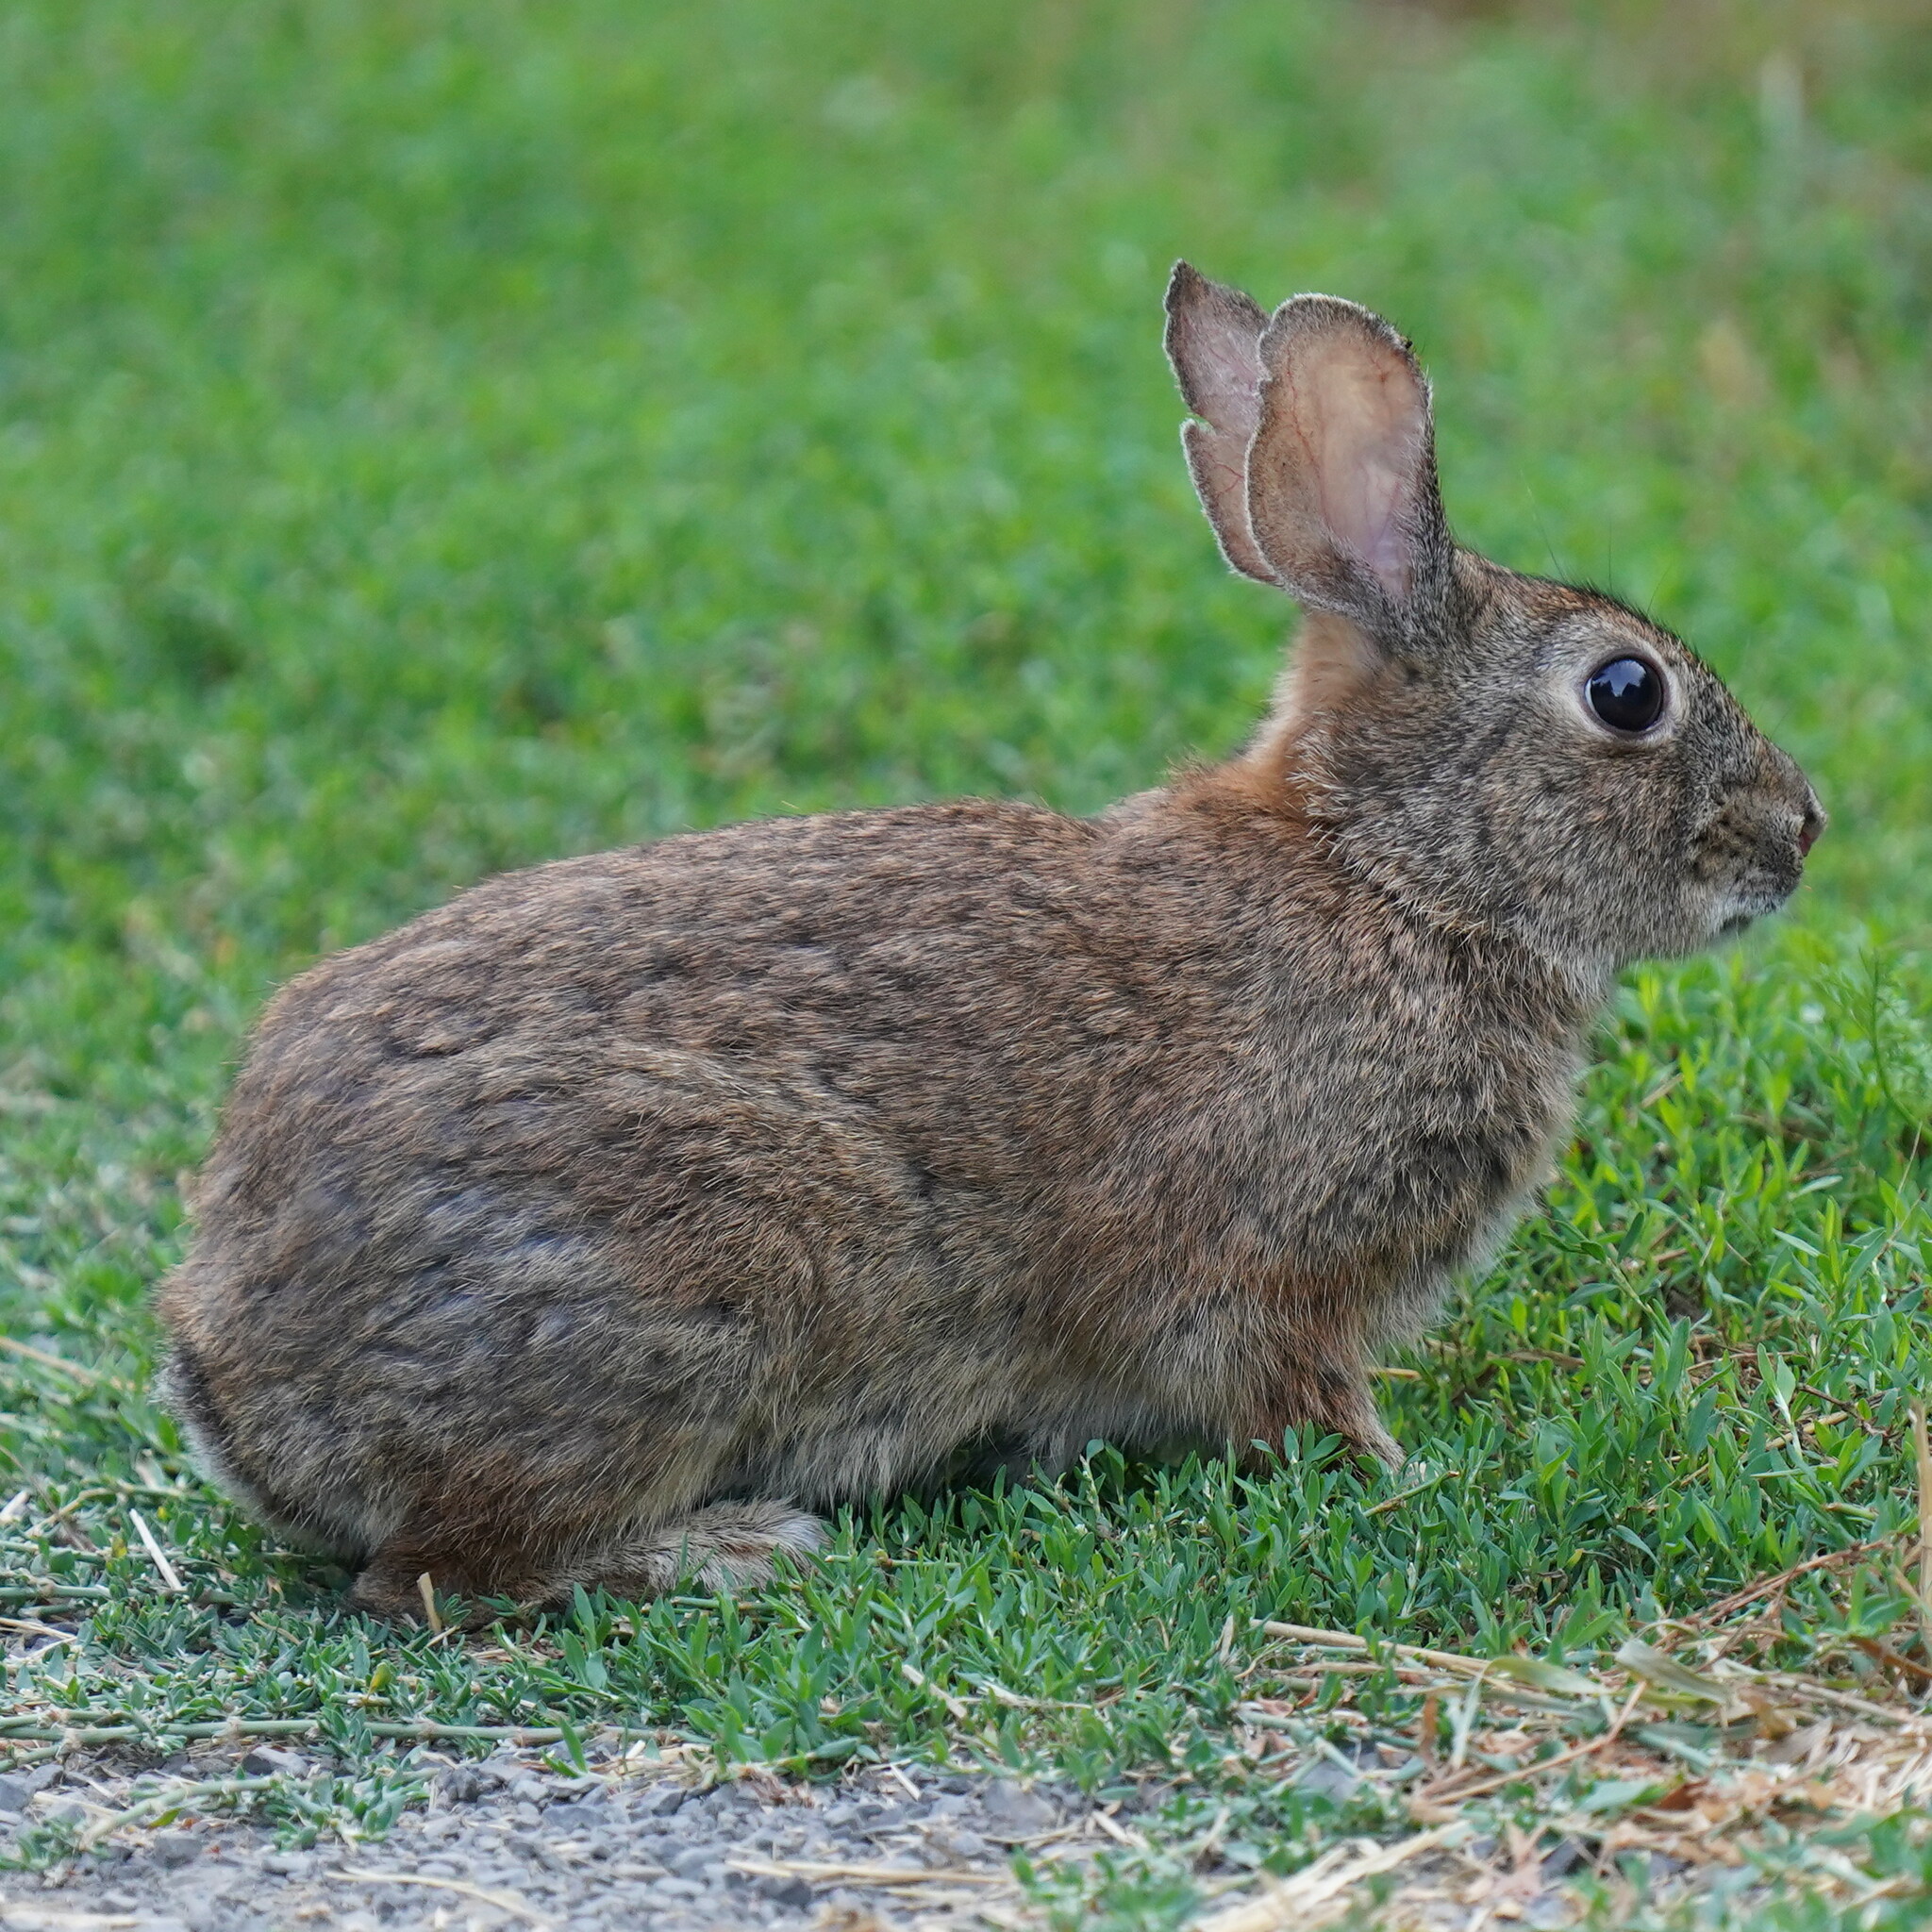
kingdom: Animalia
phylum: Chordata
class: Mammalia
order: Lagomorpha
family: Leporidae
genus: Sylvilagus
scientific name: Sylvilagus bachmani
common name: Brush rabbit
